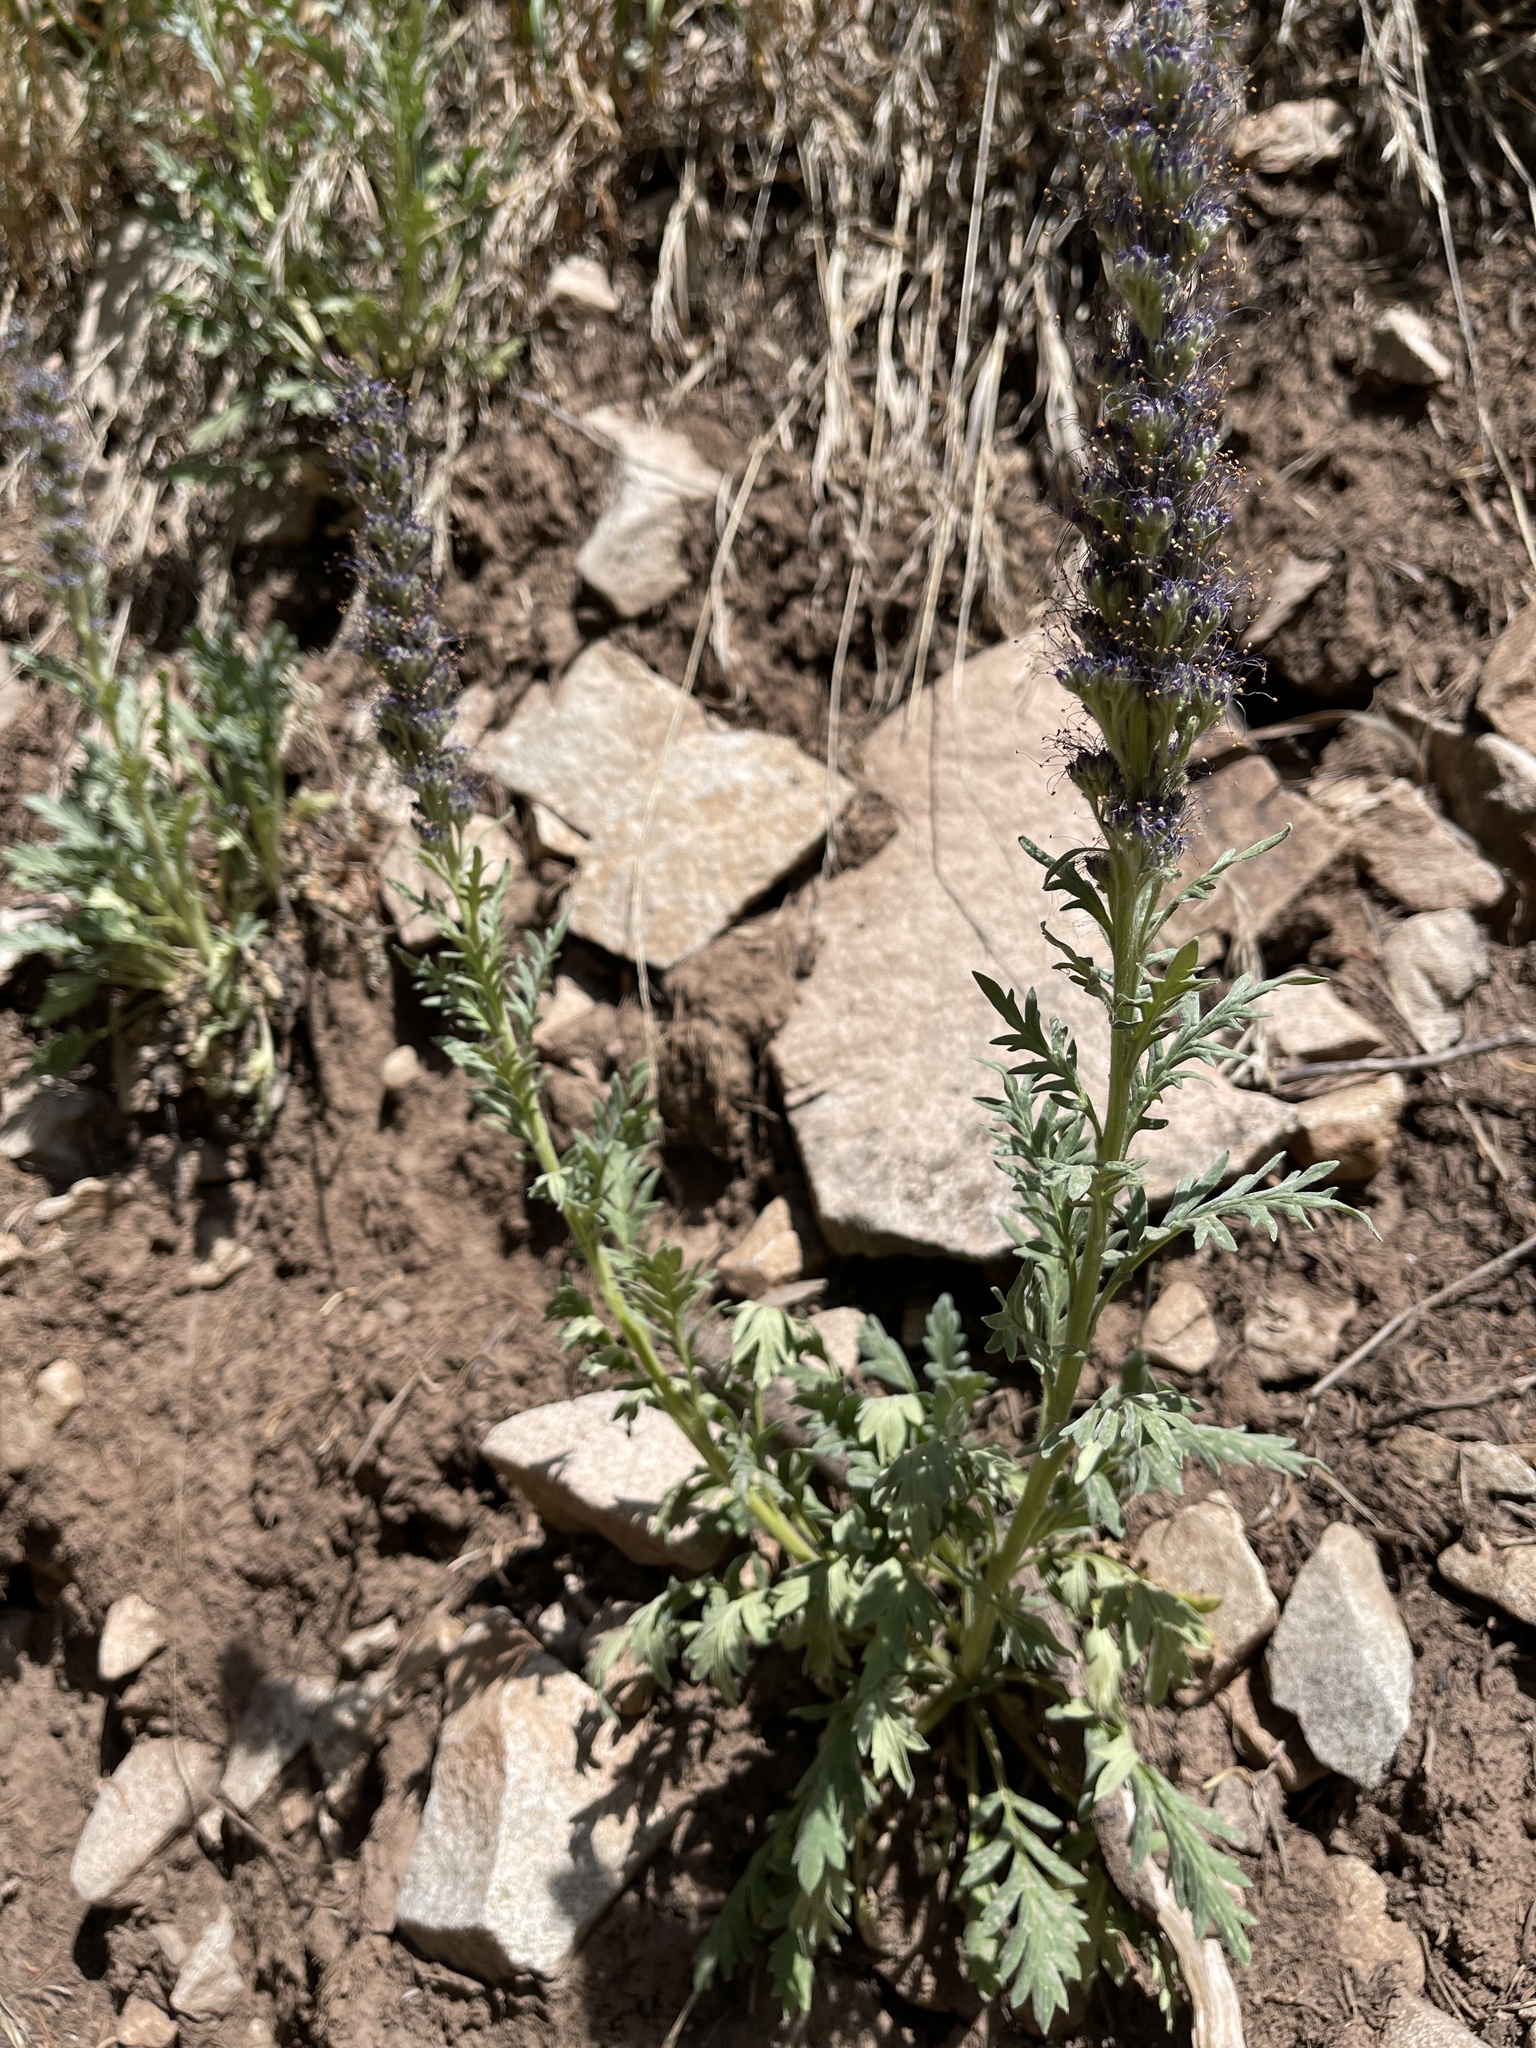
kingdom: Plantae
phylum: Tracheophyta
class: Magnoliopsida
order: Boraginales
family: Hydrophyllaceae
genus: Phacelia
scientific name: Phacelia sericea
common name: Silky phacelia
